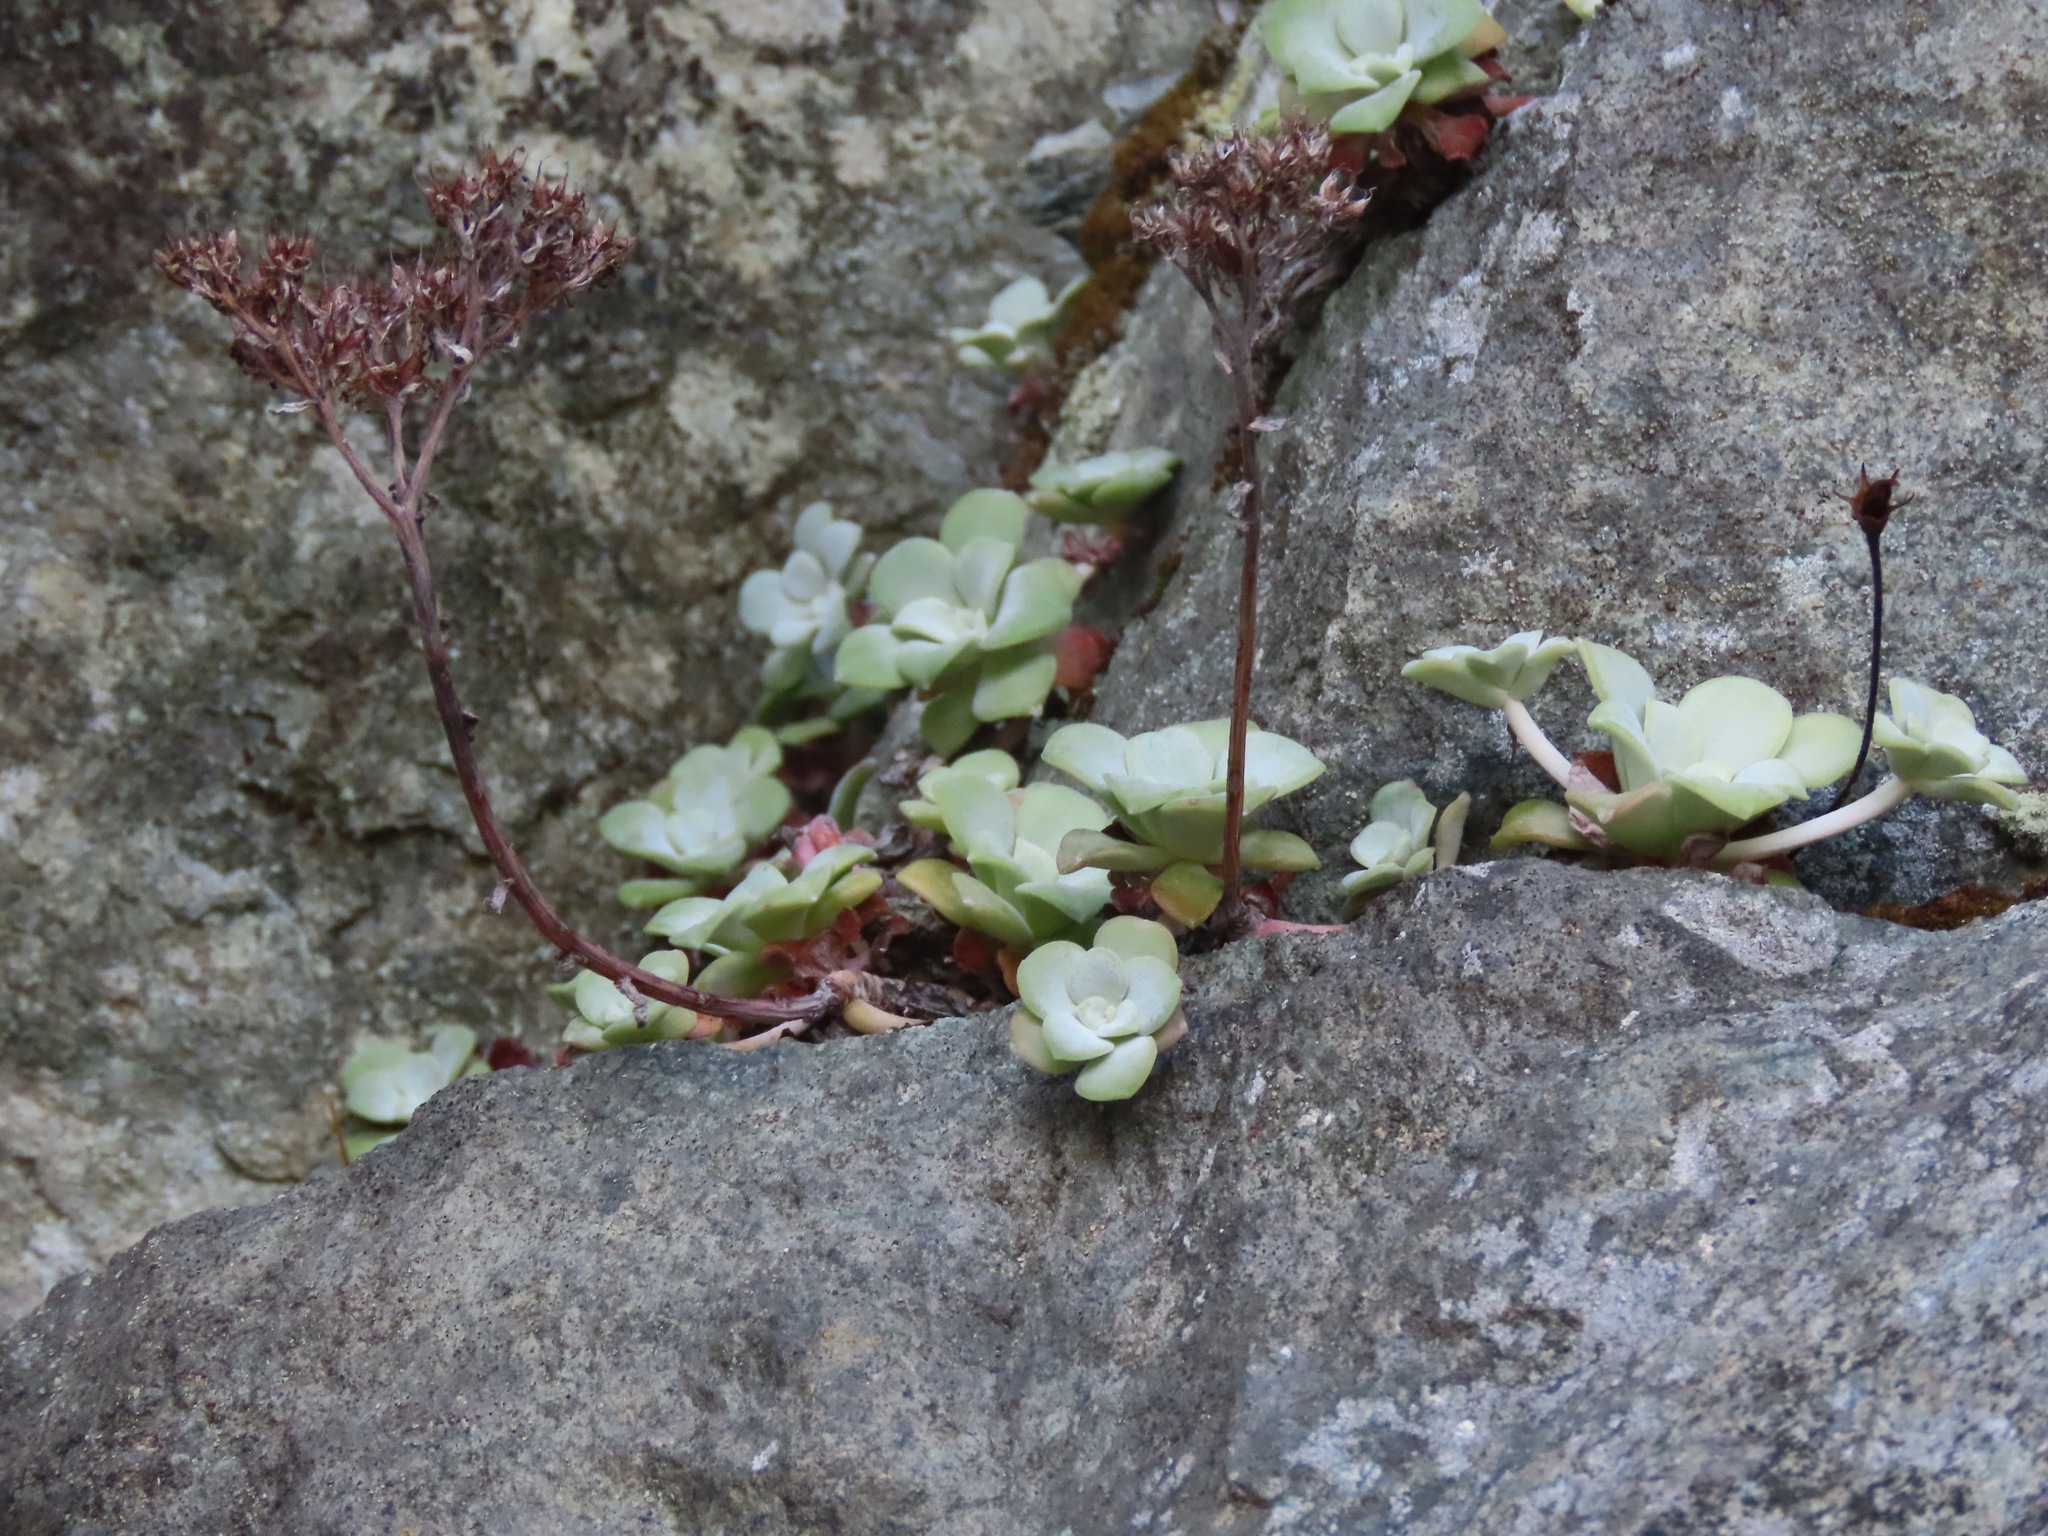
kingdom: Plantae
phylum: Tracheophyta
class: Magnoliopsida
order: Saxifragales
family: Crassulaceae
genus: Sedum
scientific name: Sedum spathulifolium
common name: Colorado stonecrop
